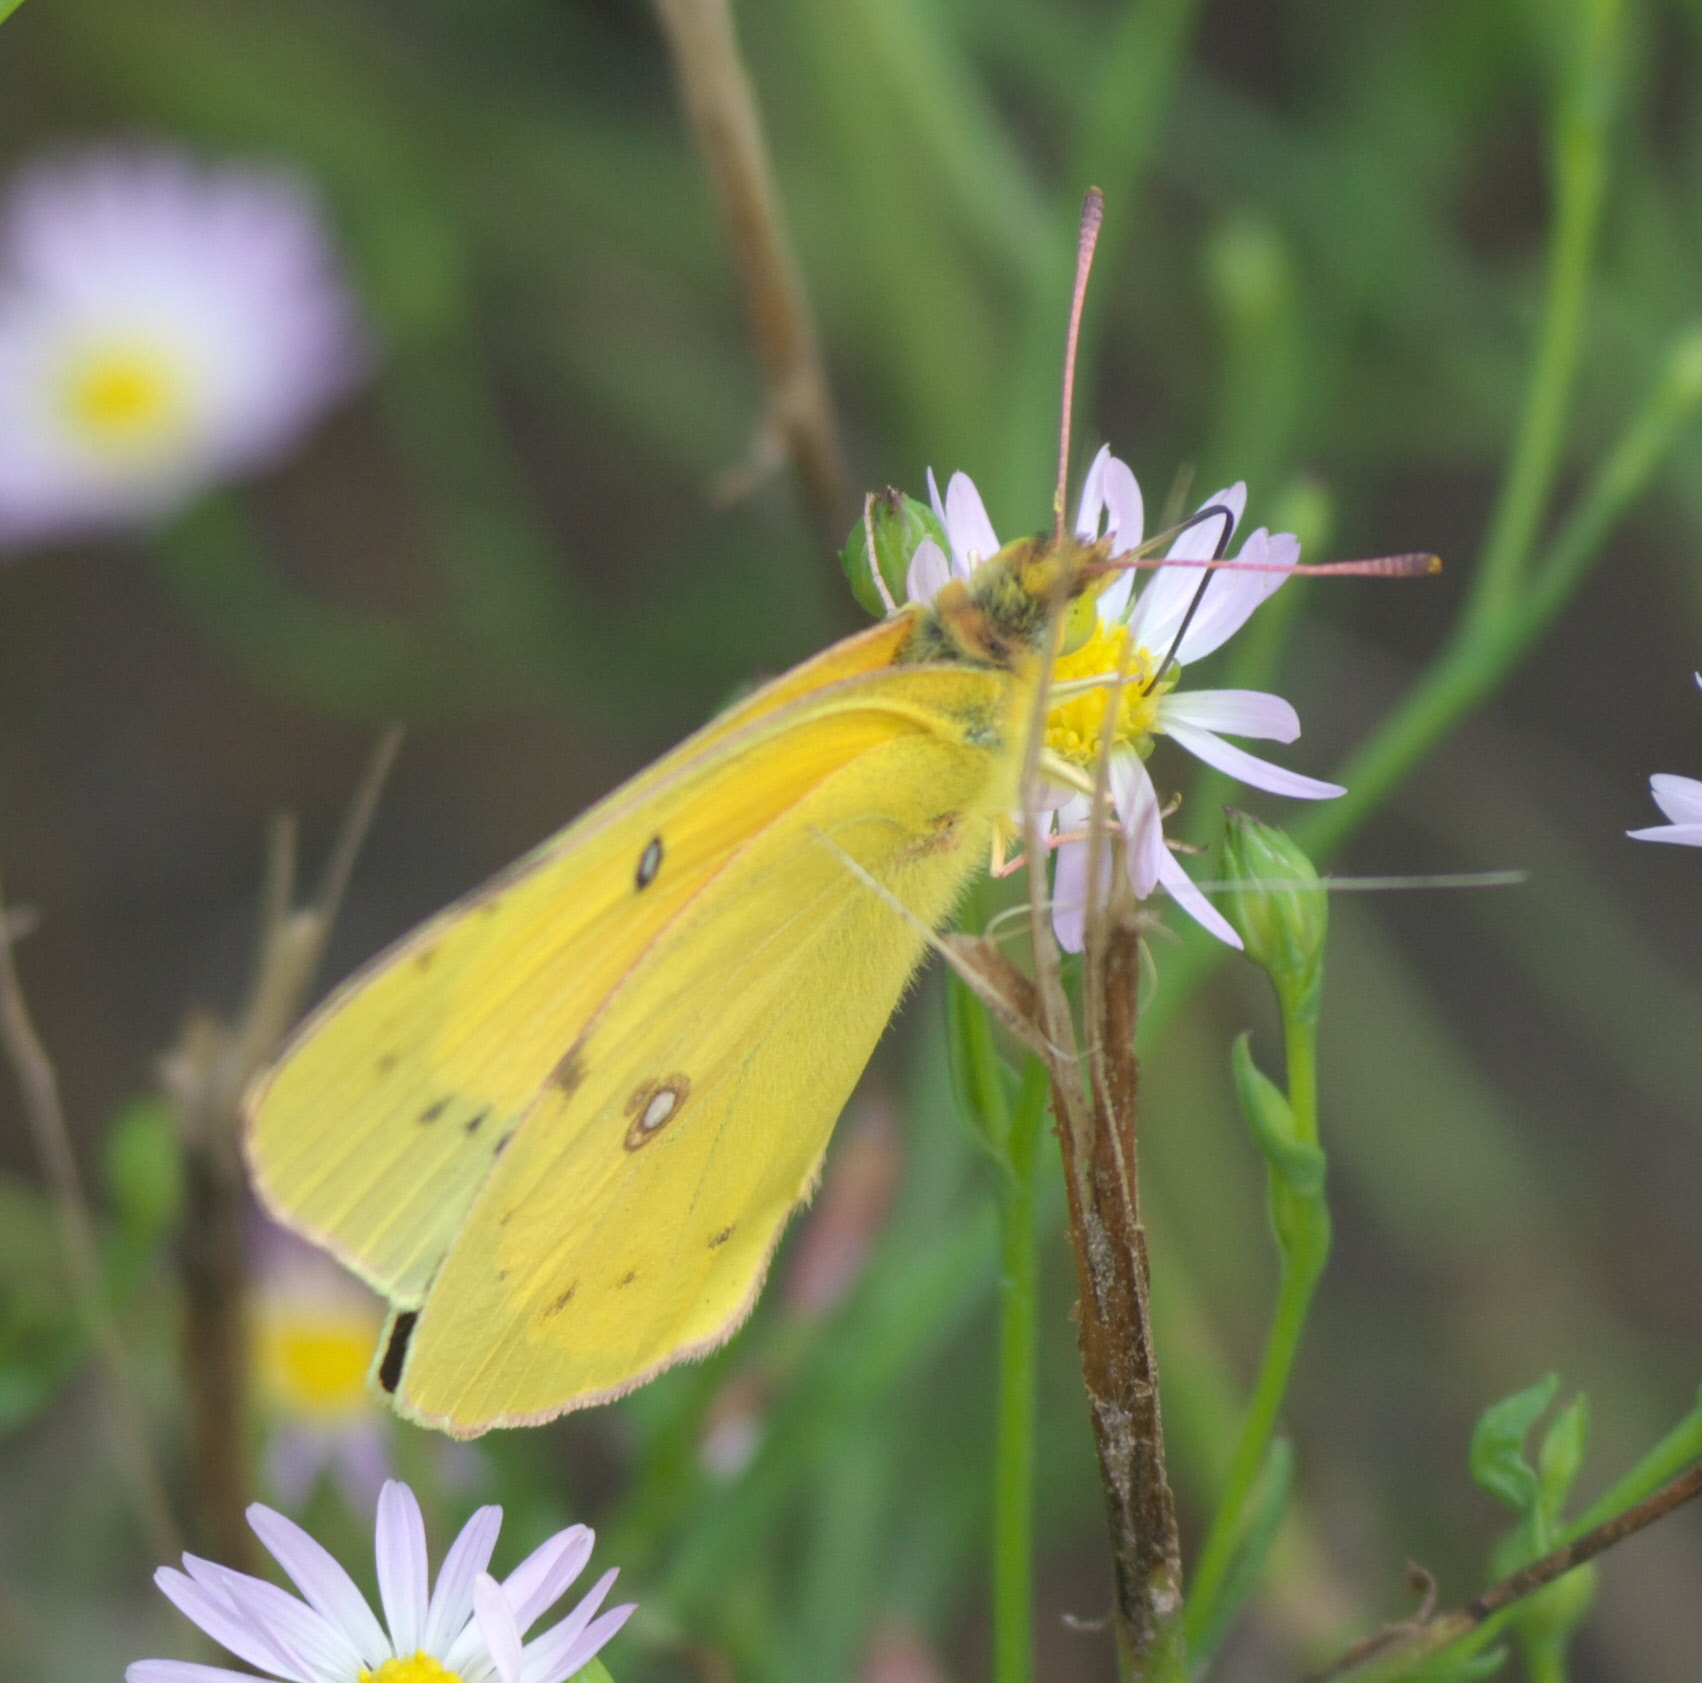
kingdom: Animalia
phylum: Arthropoda
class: Insecta
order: Lepidoptera
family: Pieridae
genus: Colias
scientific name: Colias eurytheme
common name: Alfalfa butterfly
